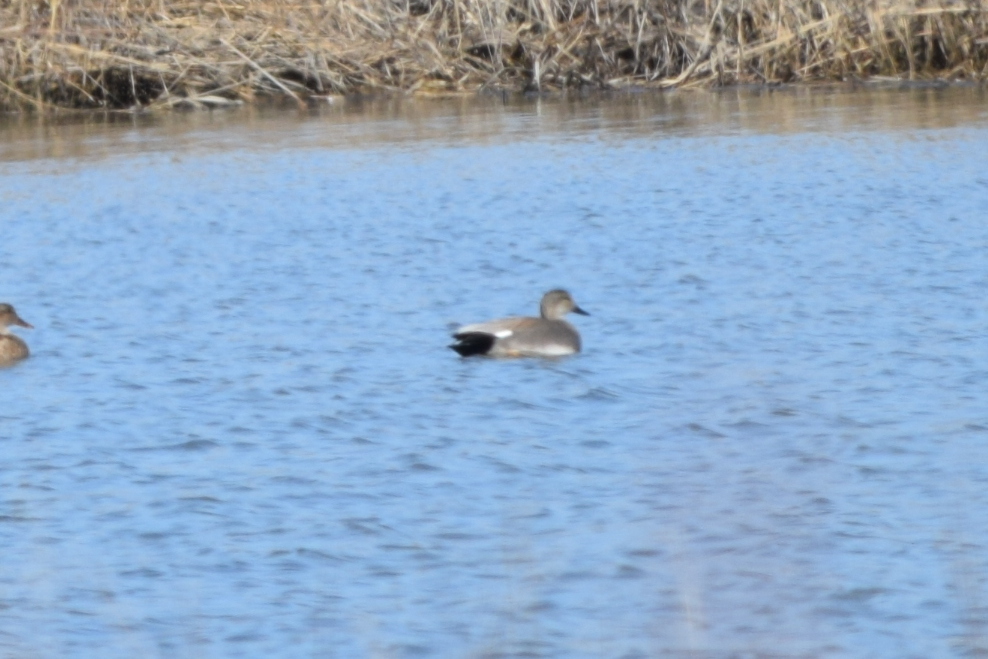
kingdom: Animalia
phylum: Chordata
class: Aves
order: Anseriformes
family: Anatidae
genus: Mareca
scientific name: Mareca strepera
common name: Gadwall
